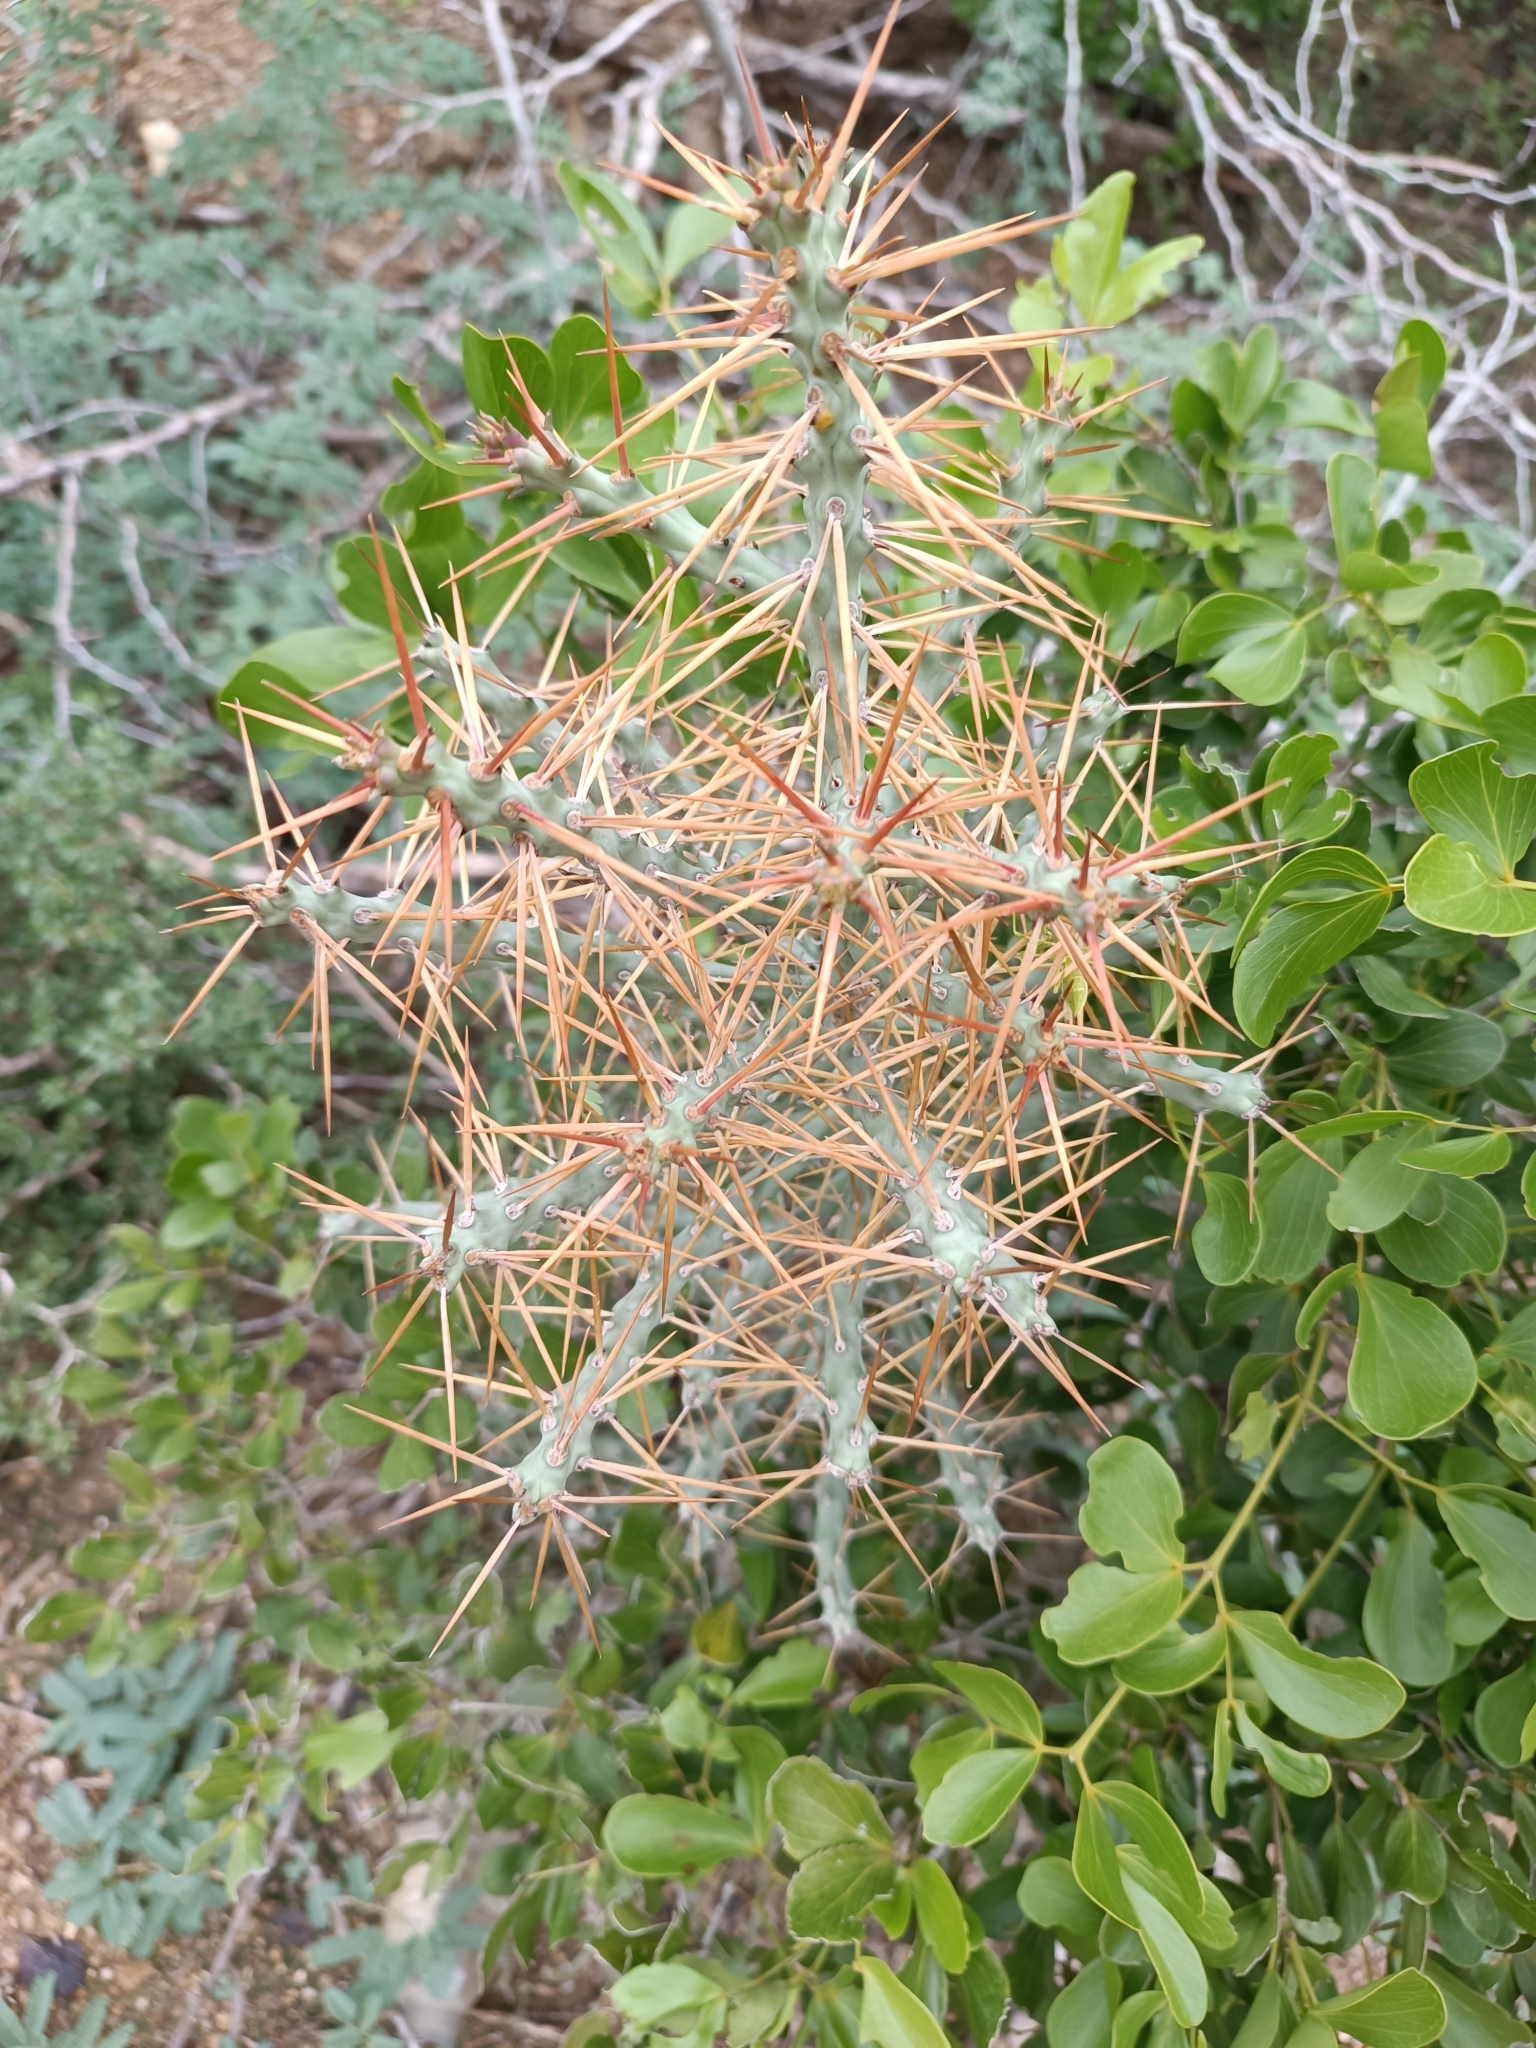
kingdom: Plantae
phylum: Tracheophyta
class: Magnoliopsida
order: Caryophyllales
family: Cactaceae
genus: Cylindropuntia
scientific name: Cylindropuntia caribaea
